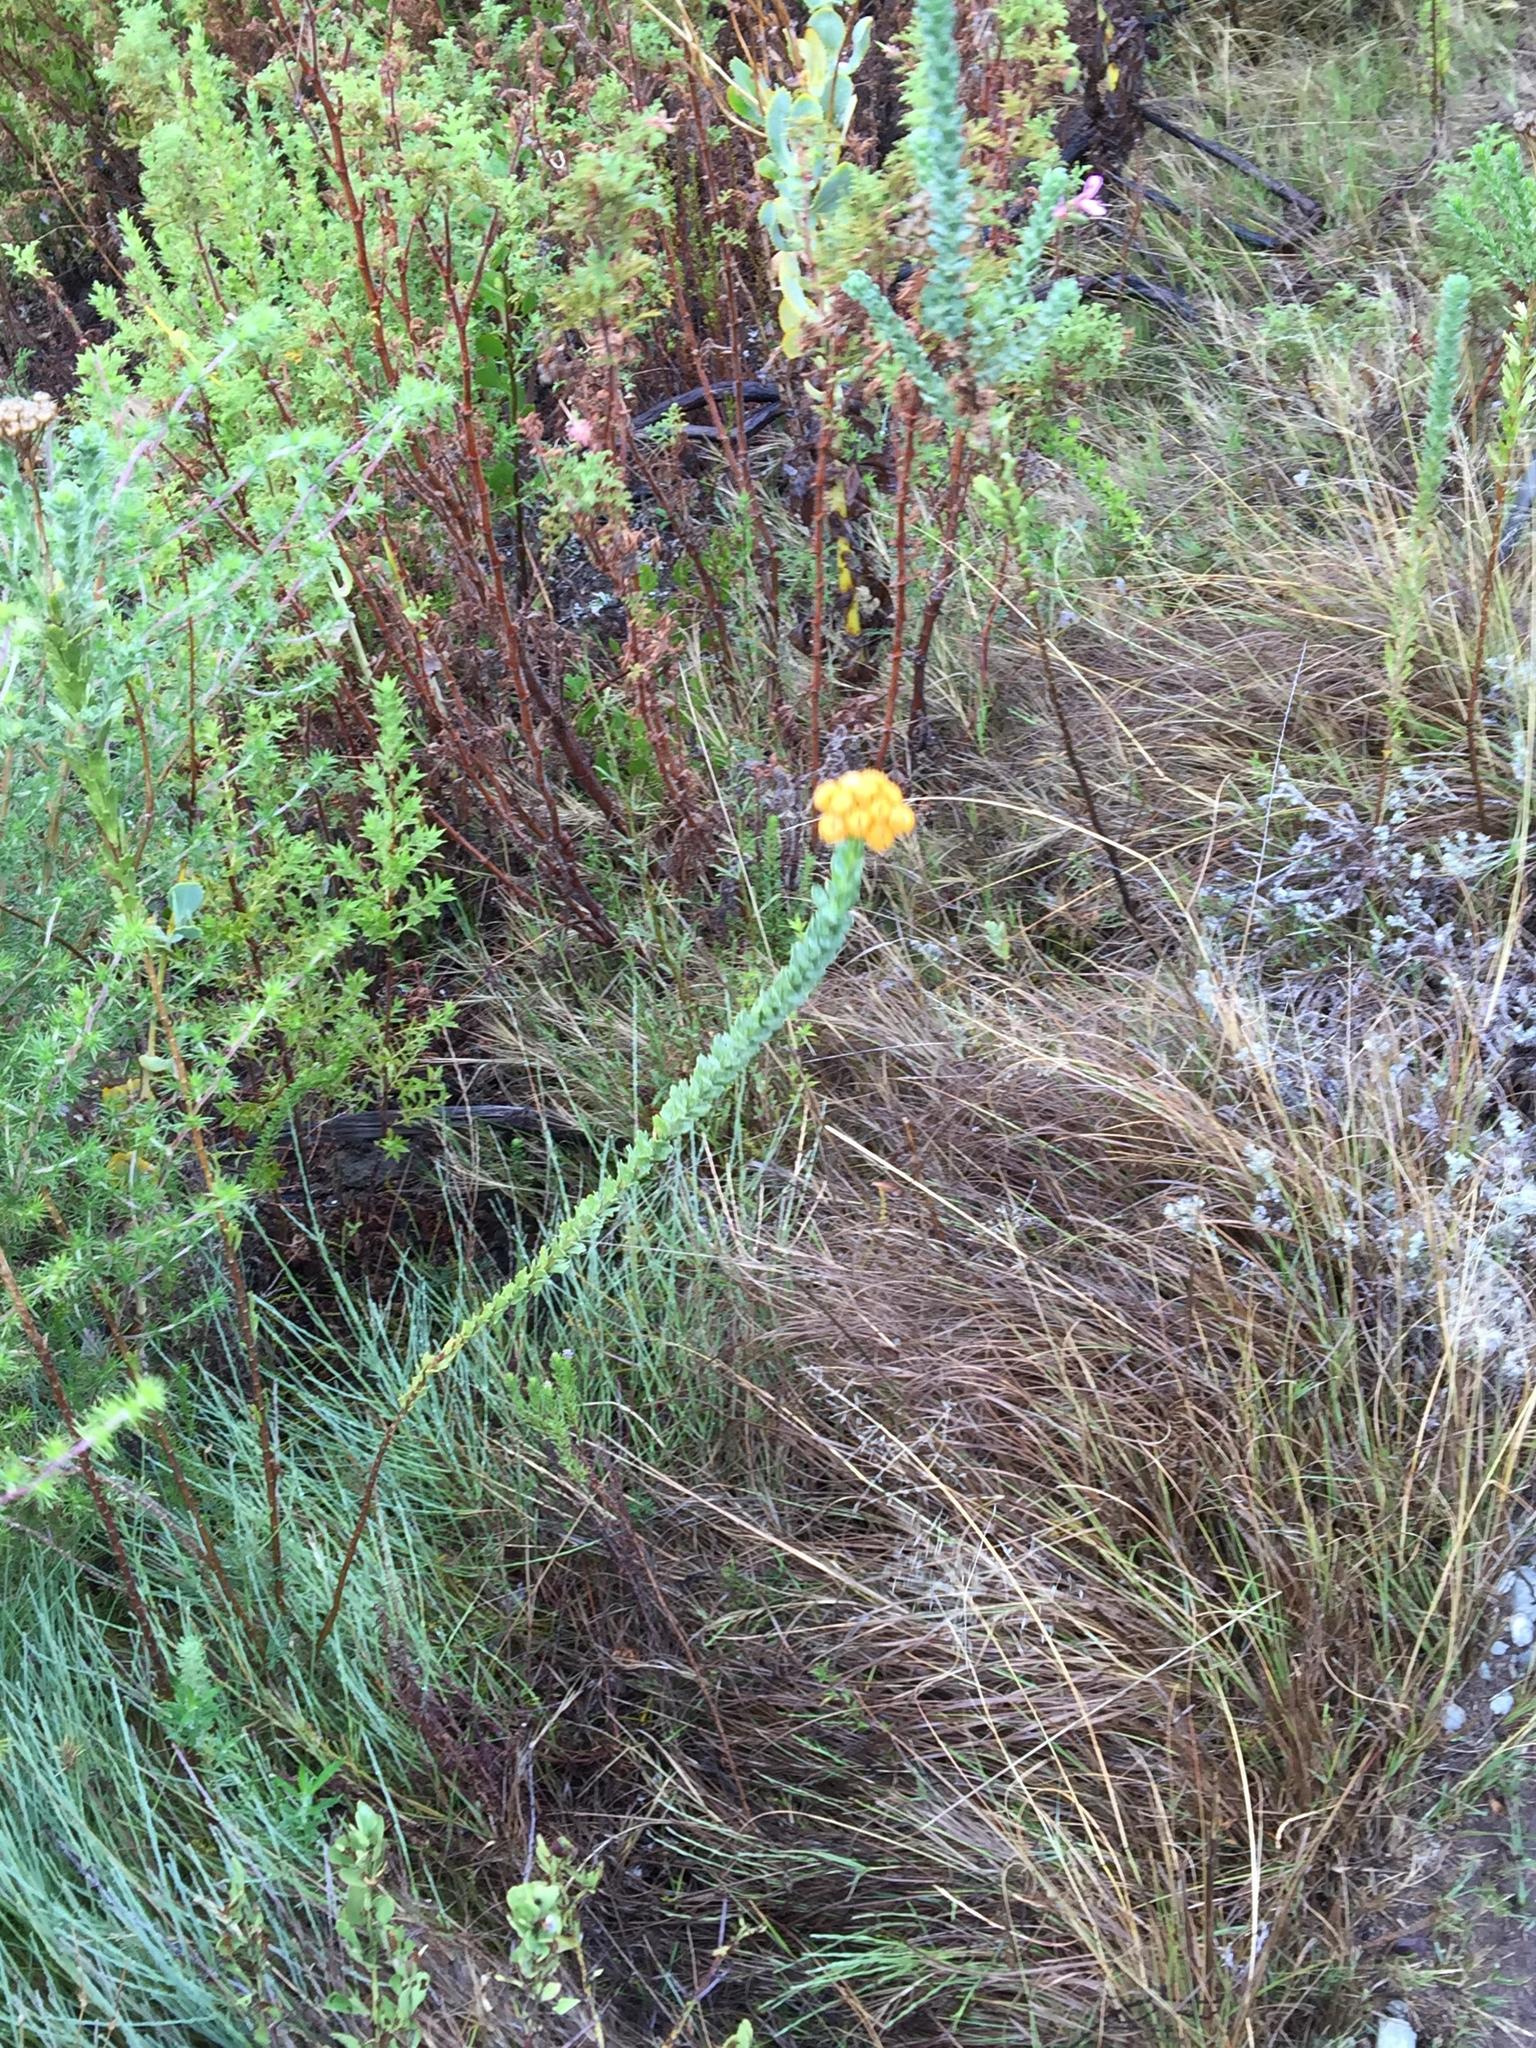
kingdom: Plantae
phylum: Tracheophyta
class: Magnoliopsida
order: Asterales
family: Asteraceae
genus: Athanasia
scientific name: Athanasia trifurcata
